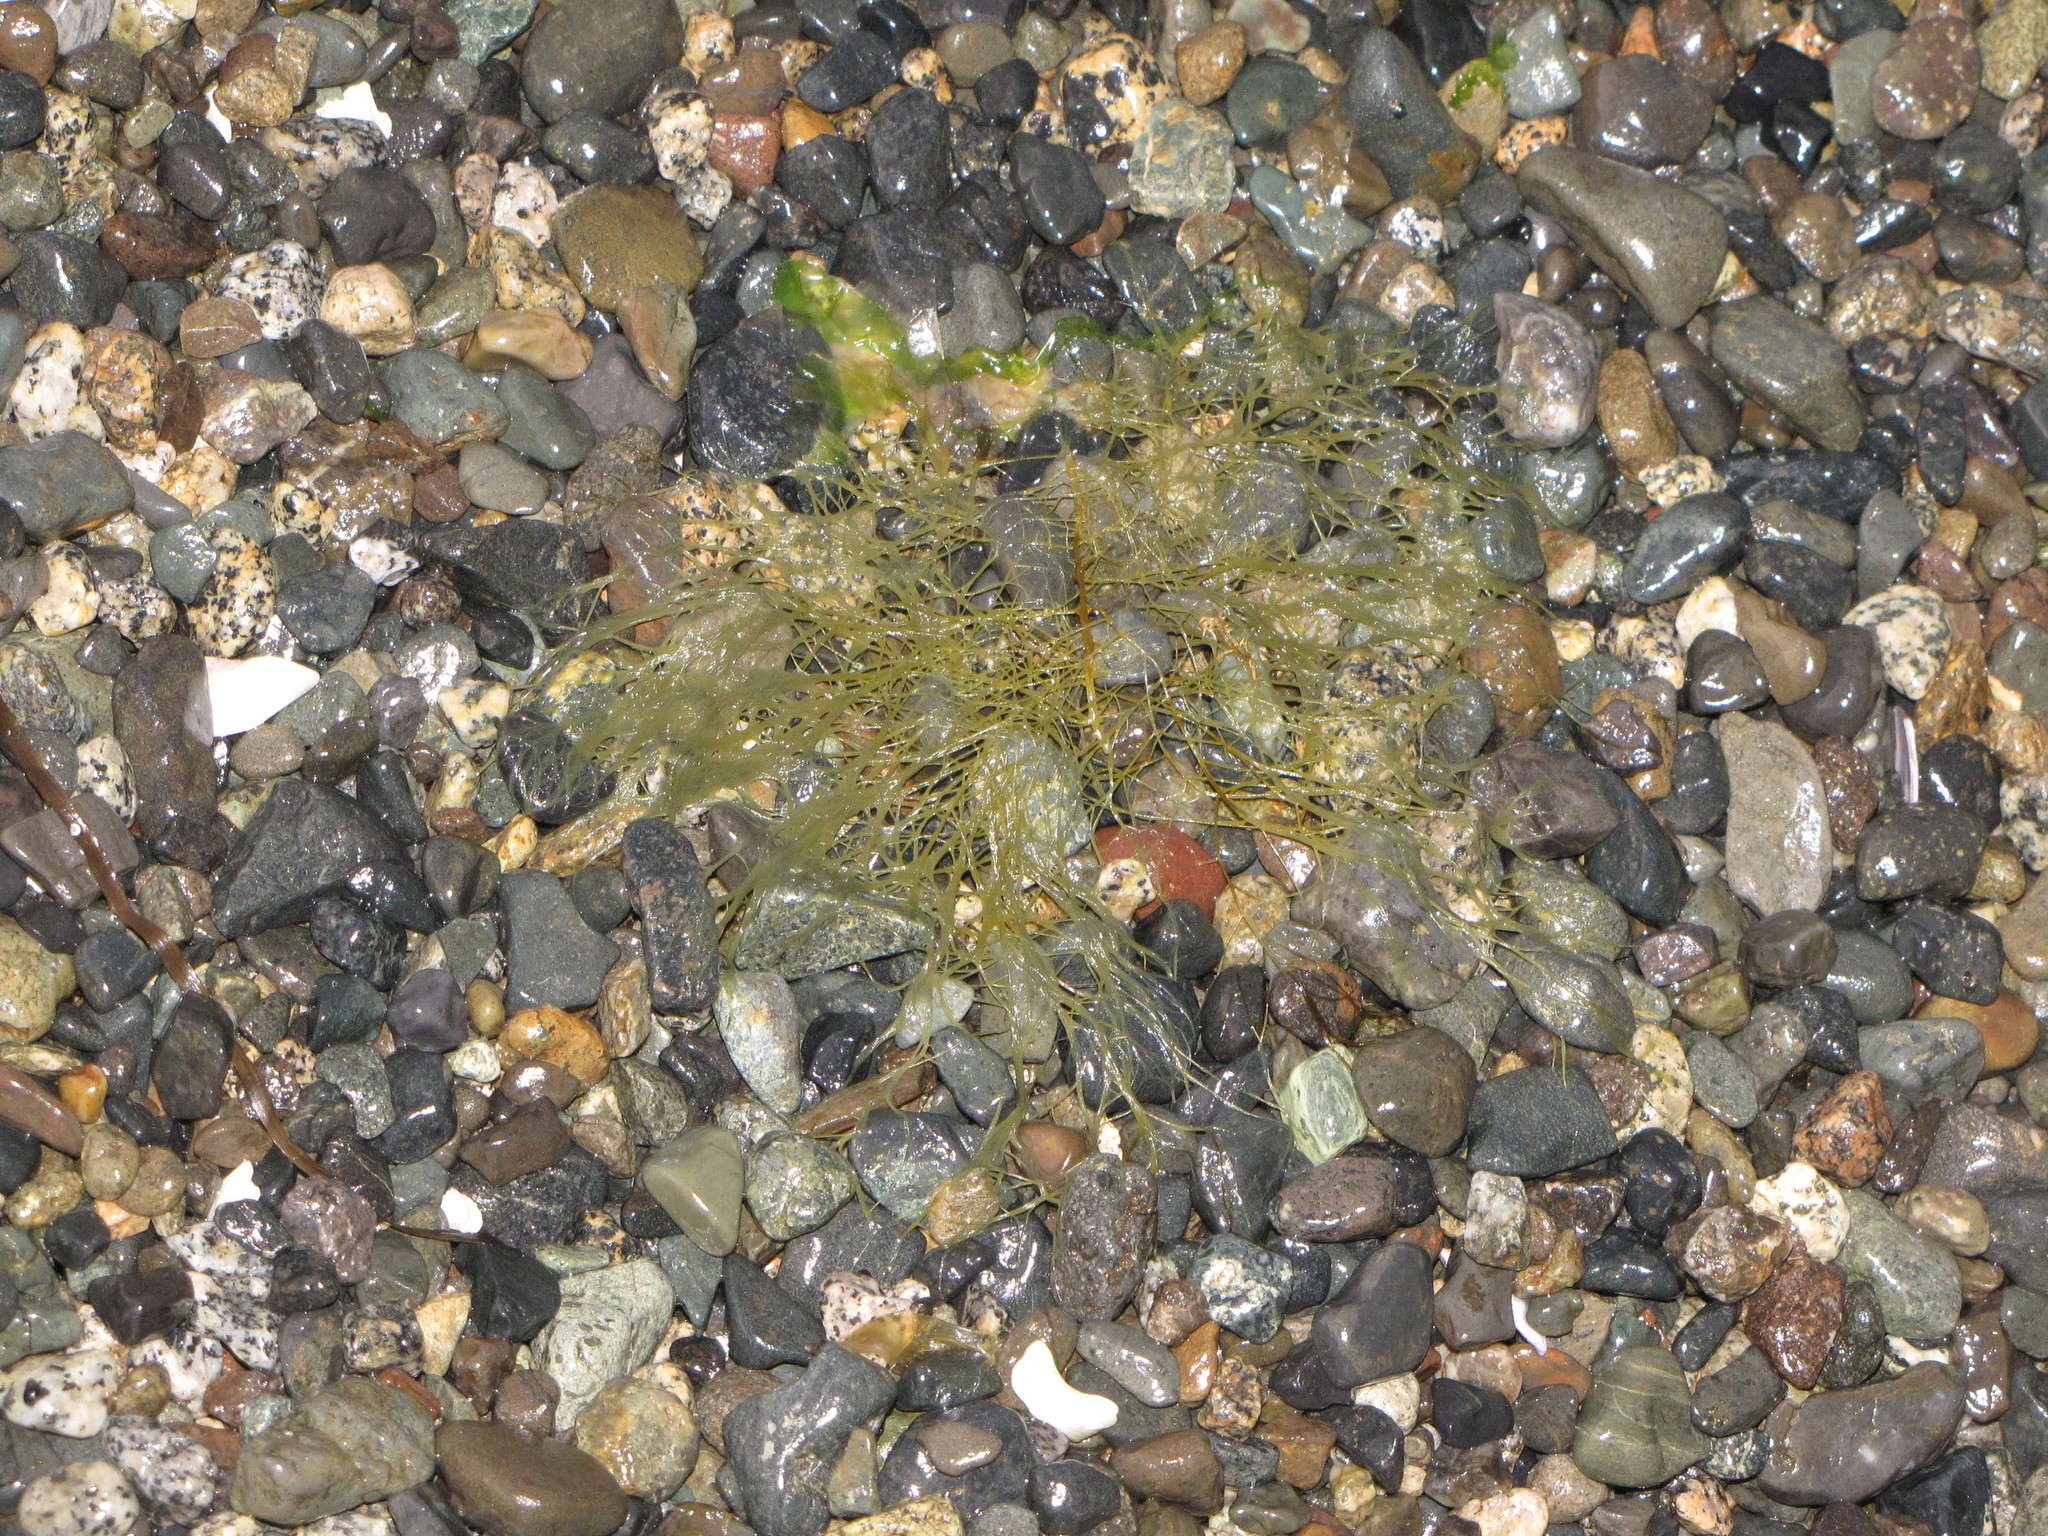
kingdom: Chromista
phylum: Ochrophyta
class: Phaeophyceae
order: Desmarestiales
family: Desmarestiaceae
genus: Desmarestia
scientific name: Desmarestia viridis
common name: Stringy acid kelp
